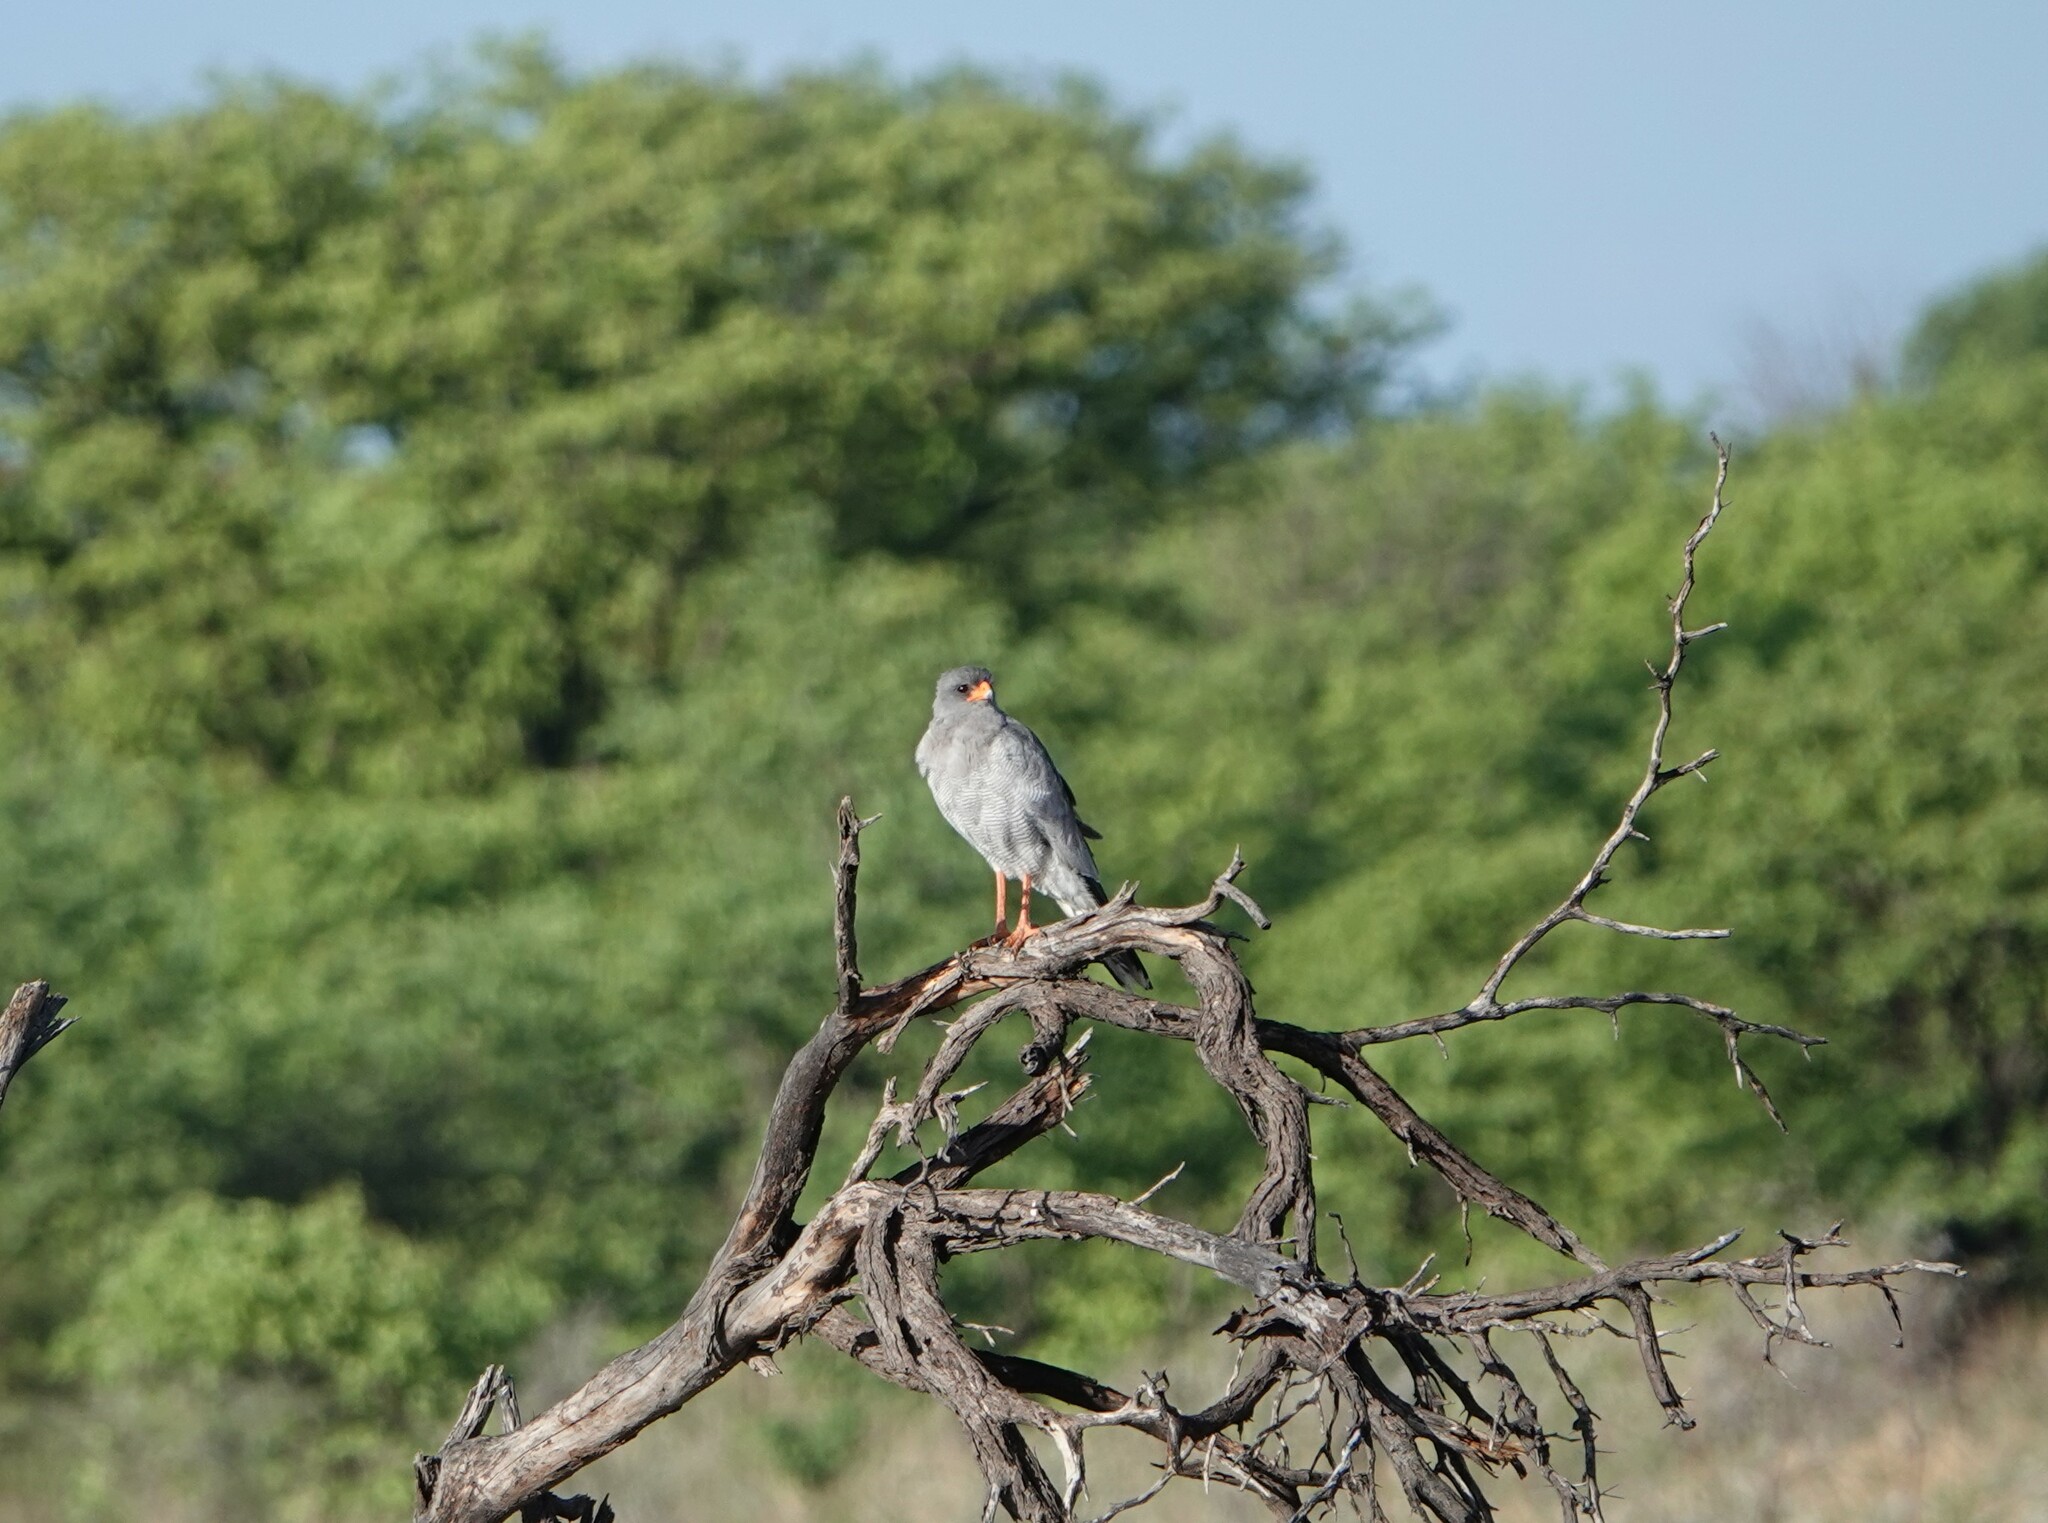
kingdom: Animalia
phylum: Chordata
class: Aves
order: Accipitriformes
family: Accipitridae
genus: Melierax
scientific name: Melierax canorus
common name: Pale chanting-goshawk
